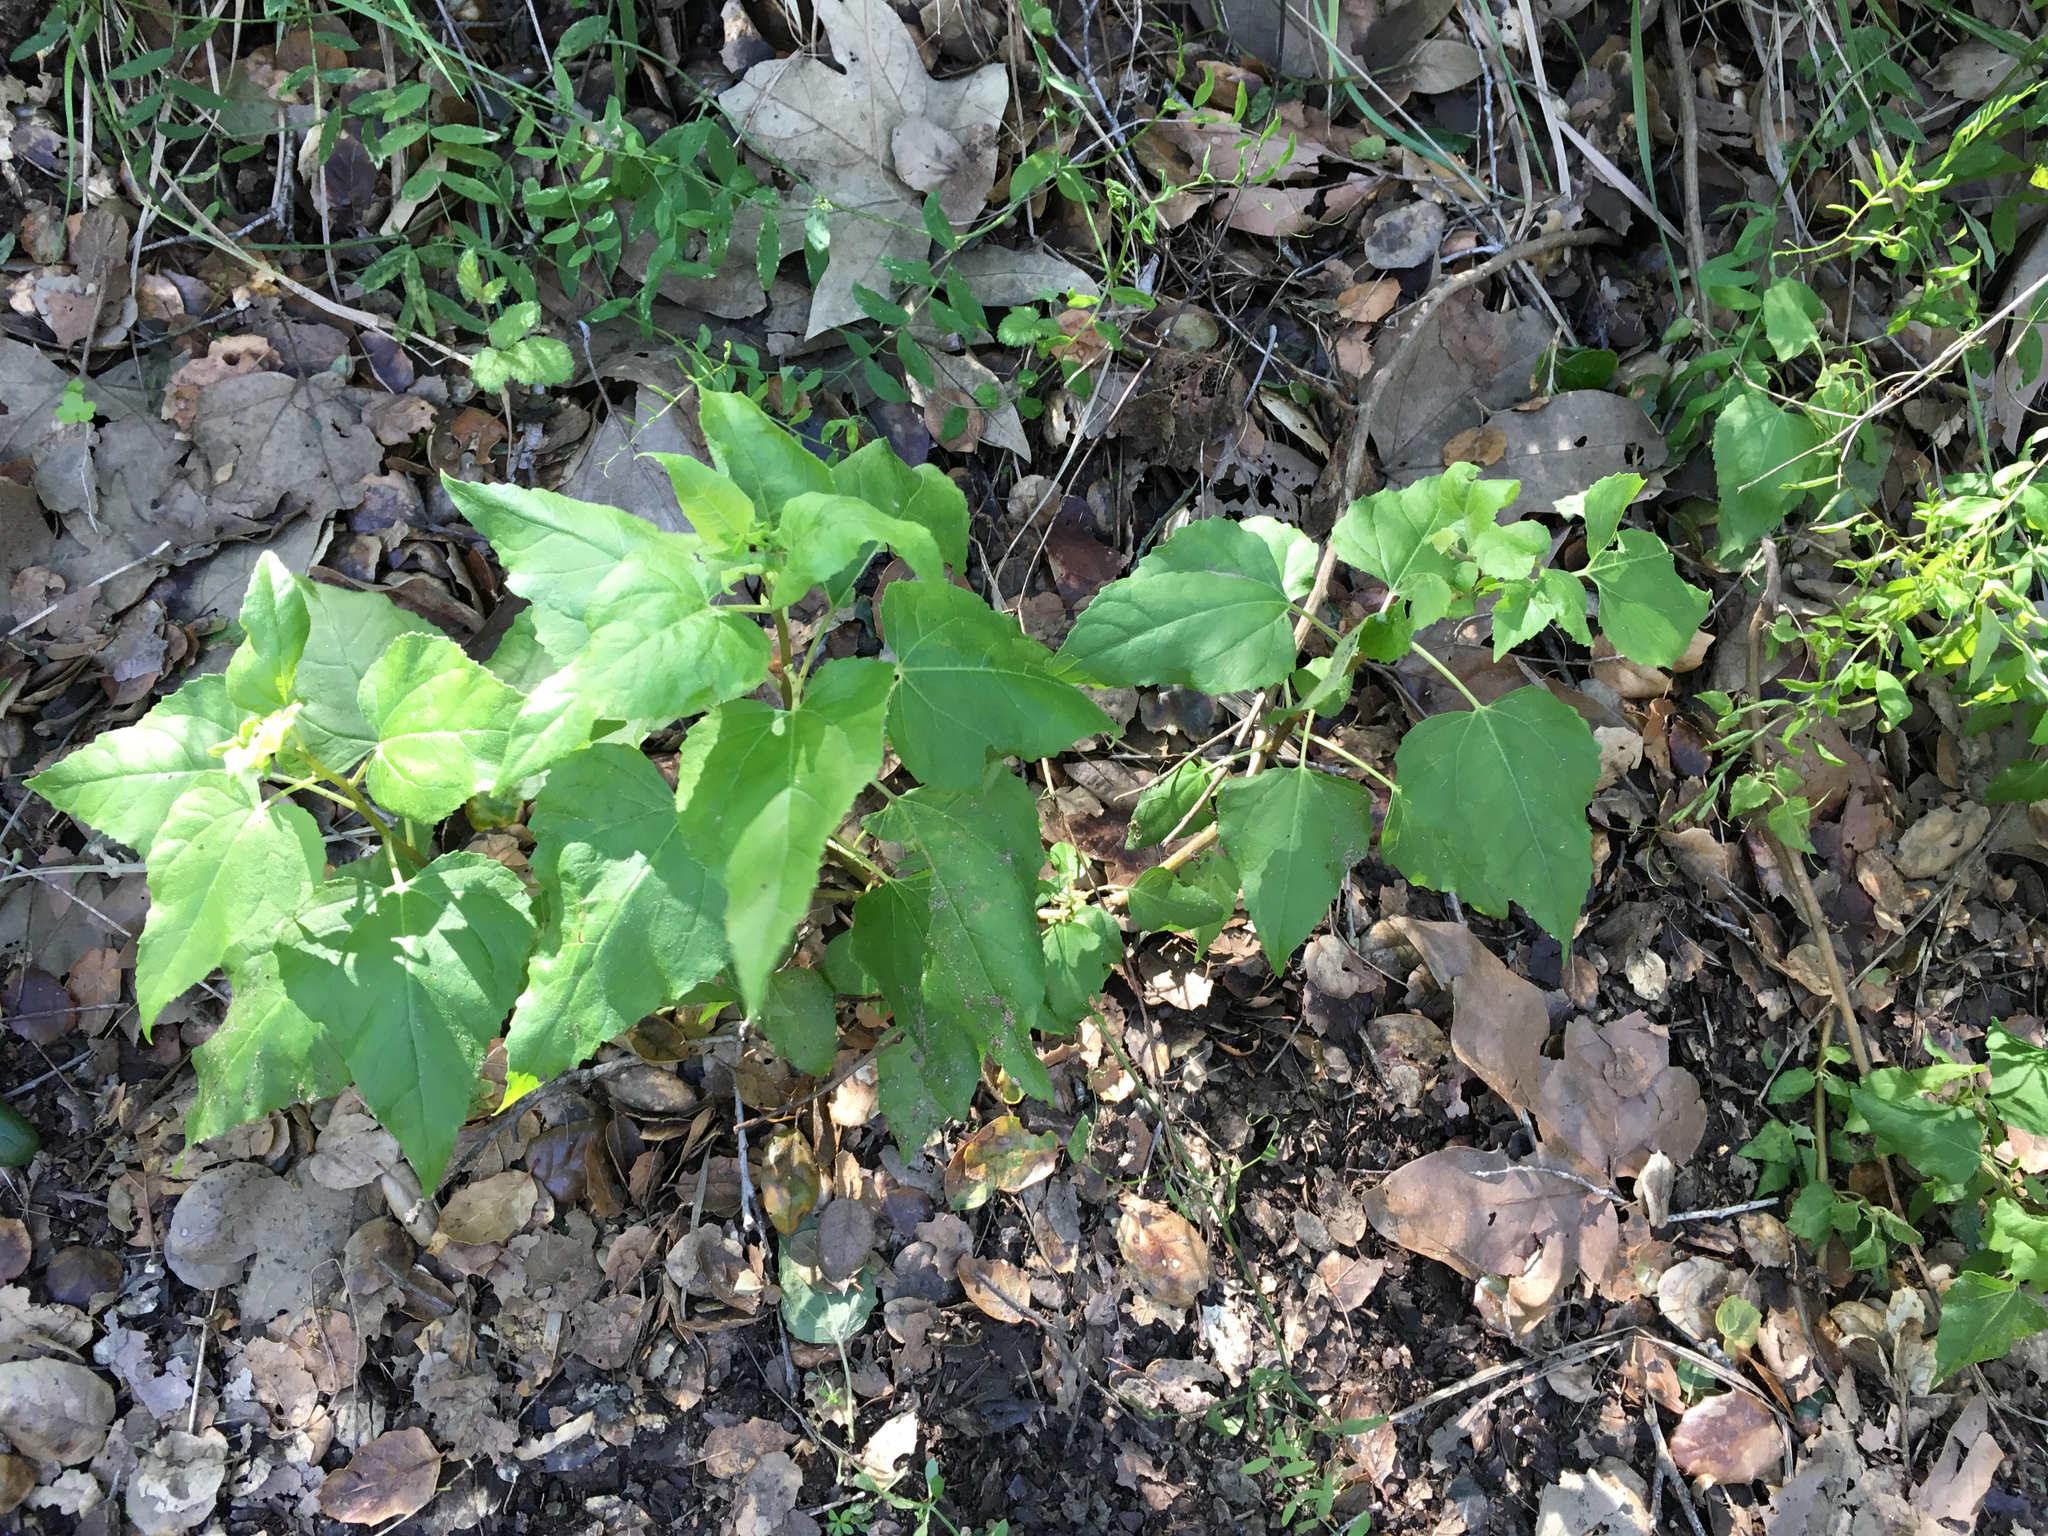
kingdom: Plantae
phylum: Tracheophyta
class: Magnoliopsida
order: Asterales
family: Asteraceae
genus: Venegasia
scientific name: Venegasia carpesioides
